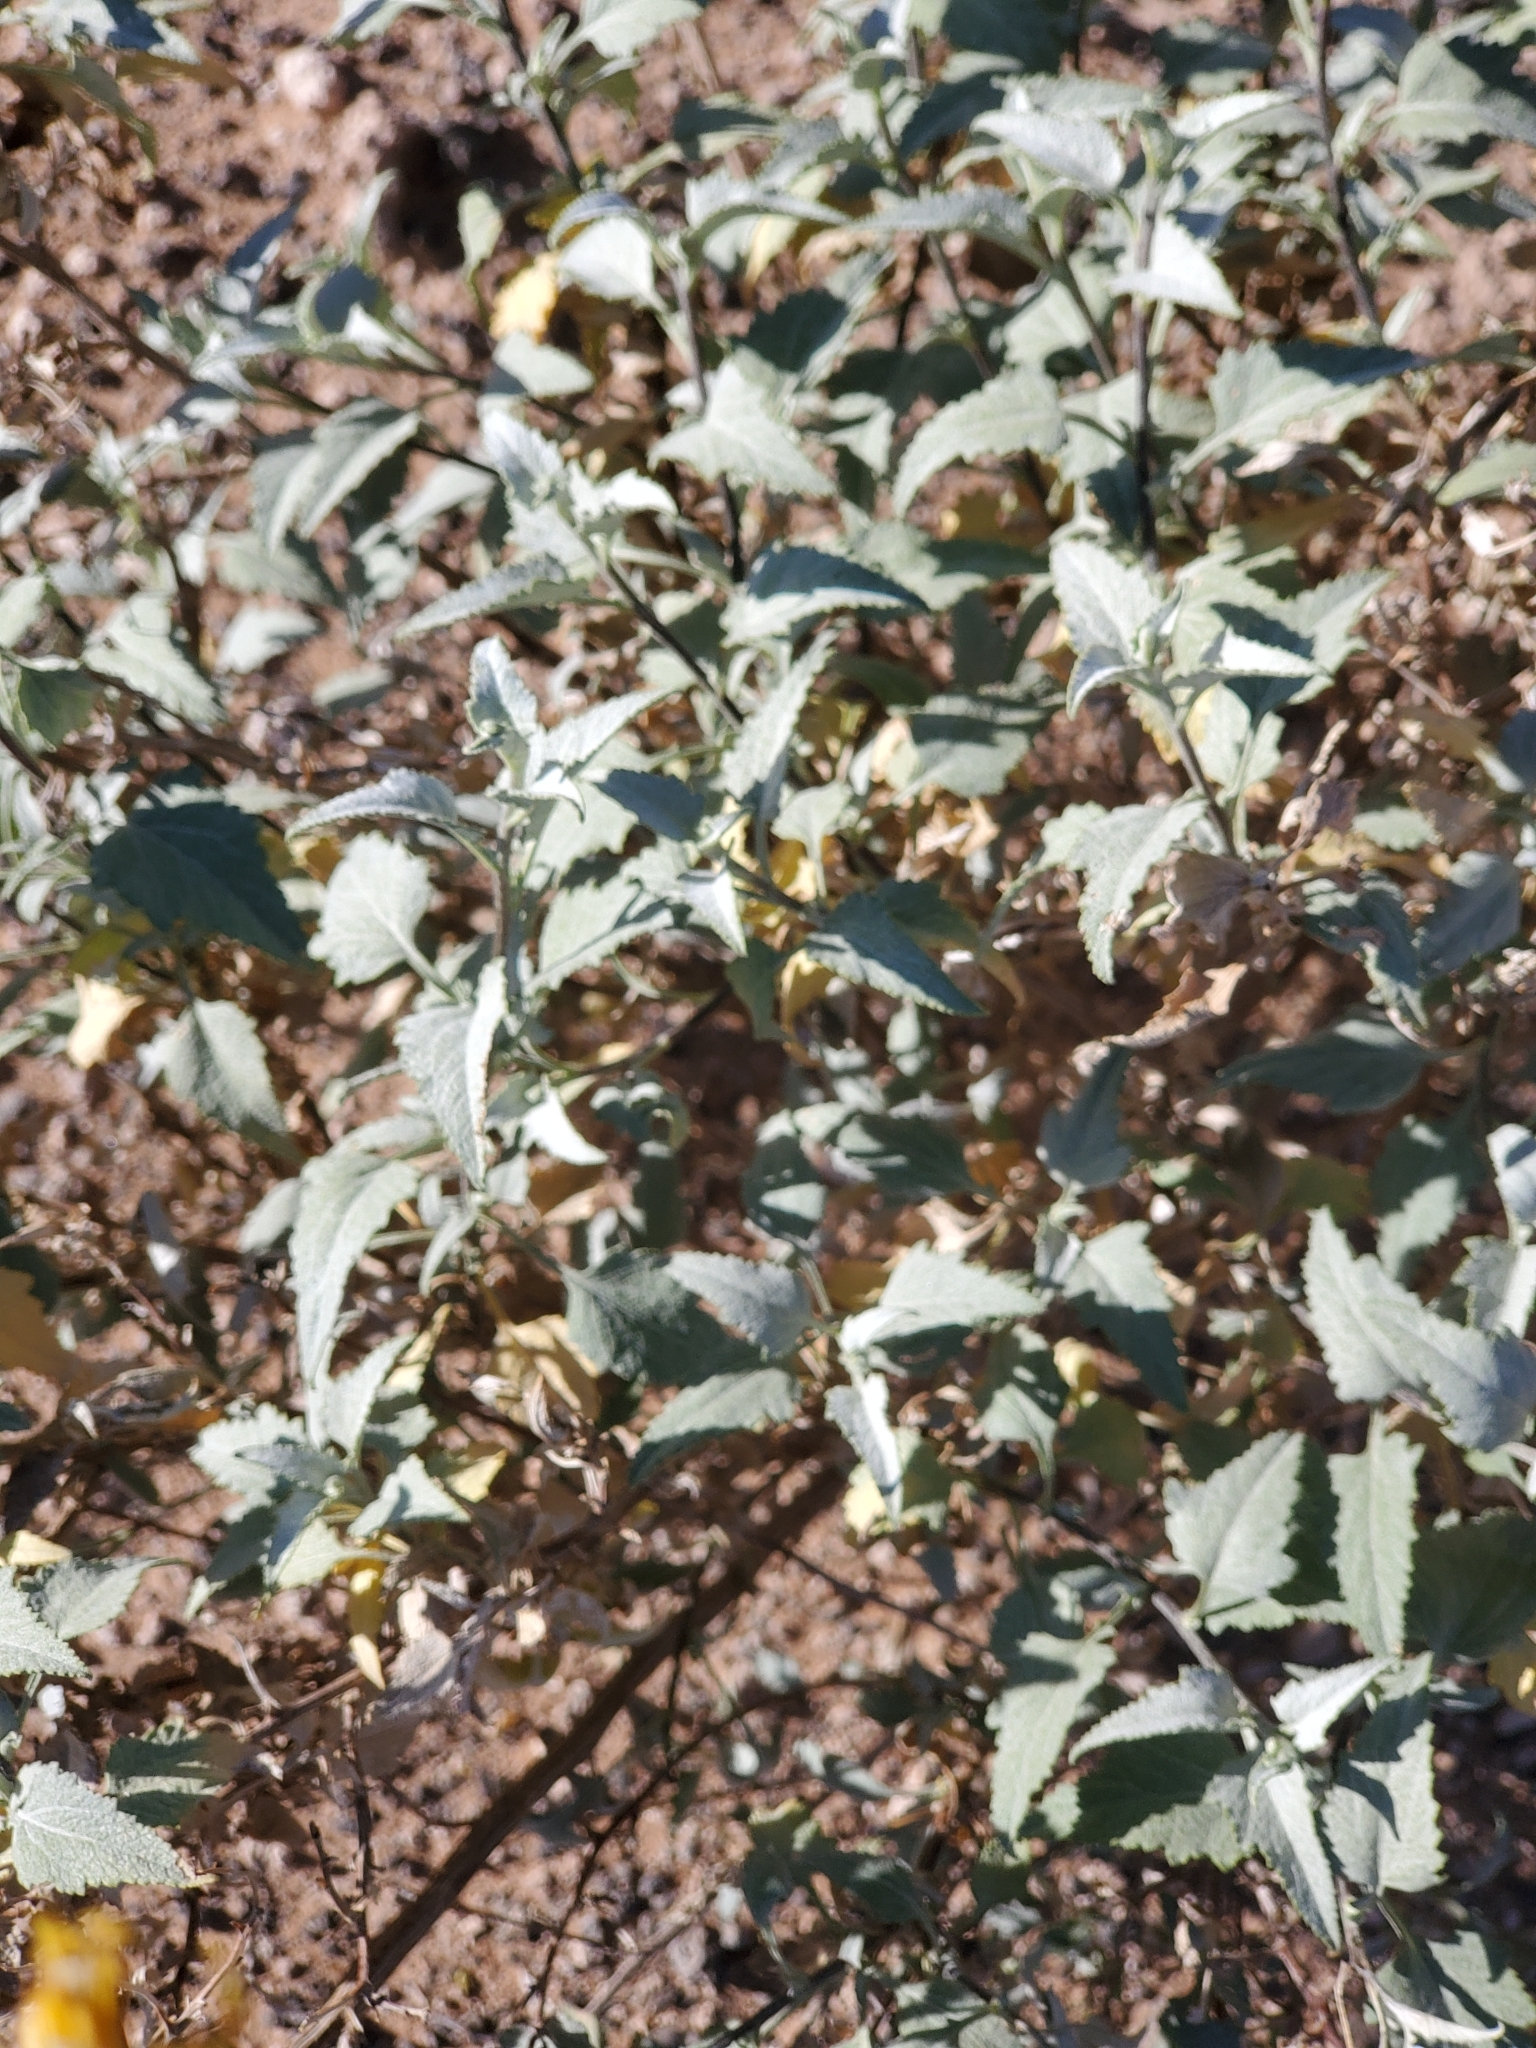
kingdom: Plantae
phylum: Tracheophyta
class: Magnoliopsida
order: Asterales
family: Asteraceae
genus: Ambrosia
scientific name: Ambrosia deltoidea
